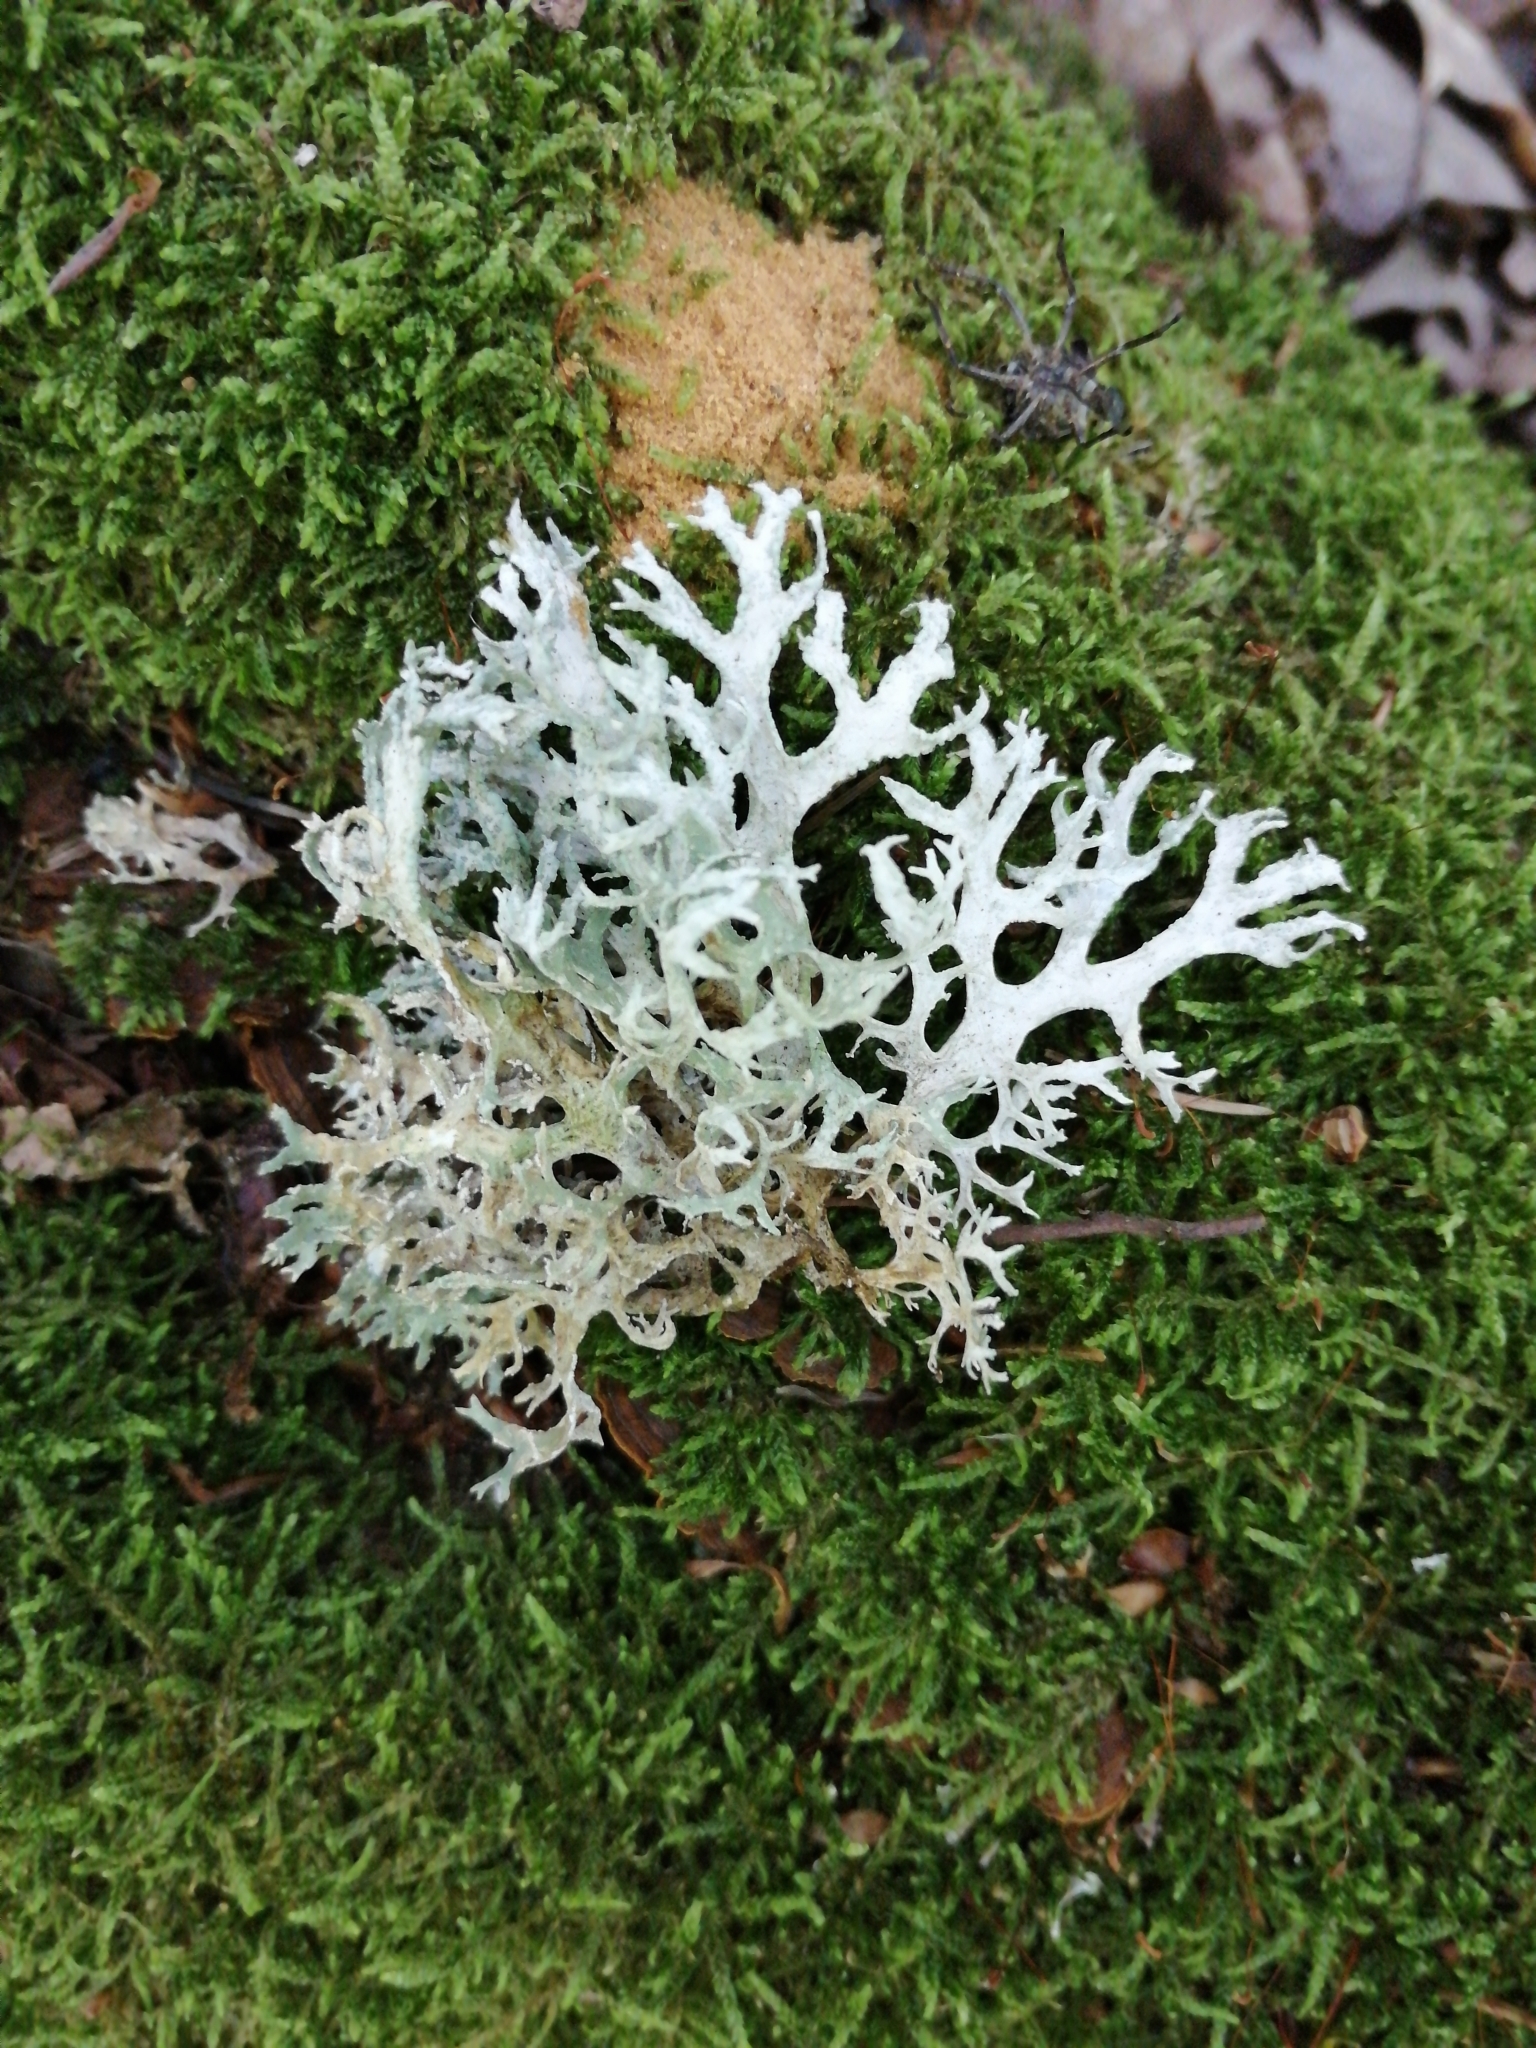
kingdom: Fungi
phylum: Ascomycota
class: Lecanoromycetes
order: Lecanorales
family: Parmeliaceae
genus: Evernia
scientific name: Evernia prunastri
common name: Oak moss
